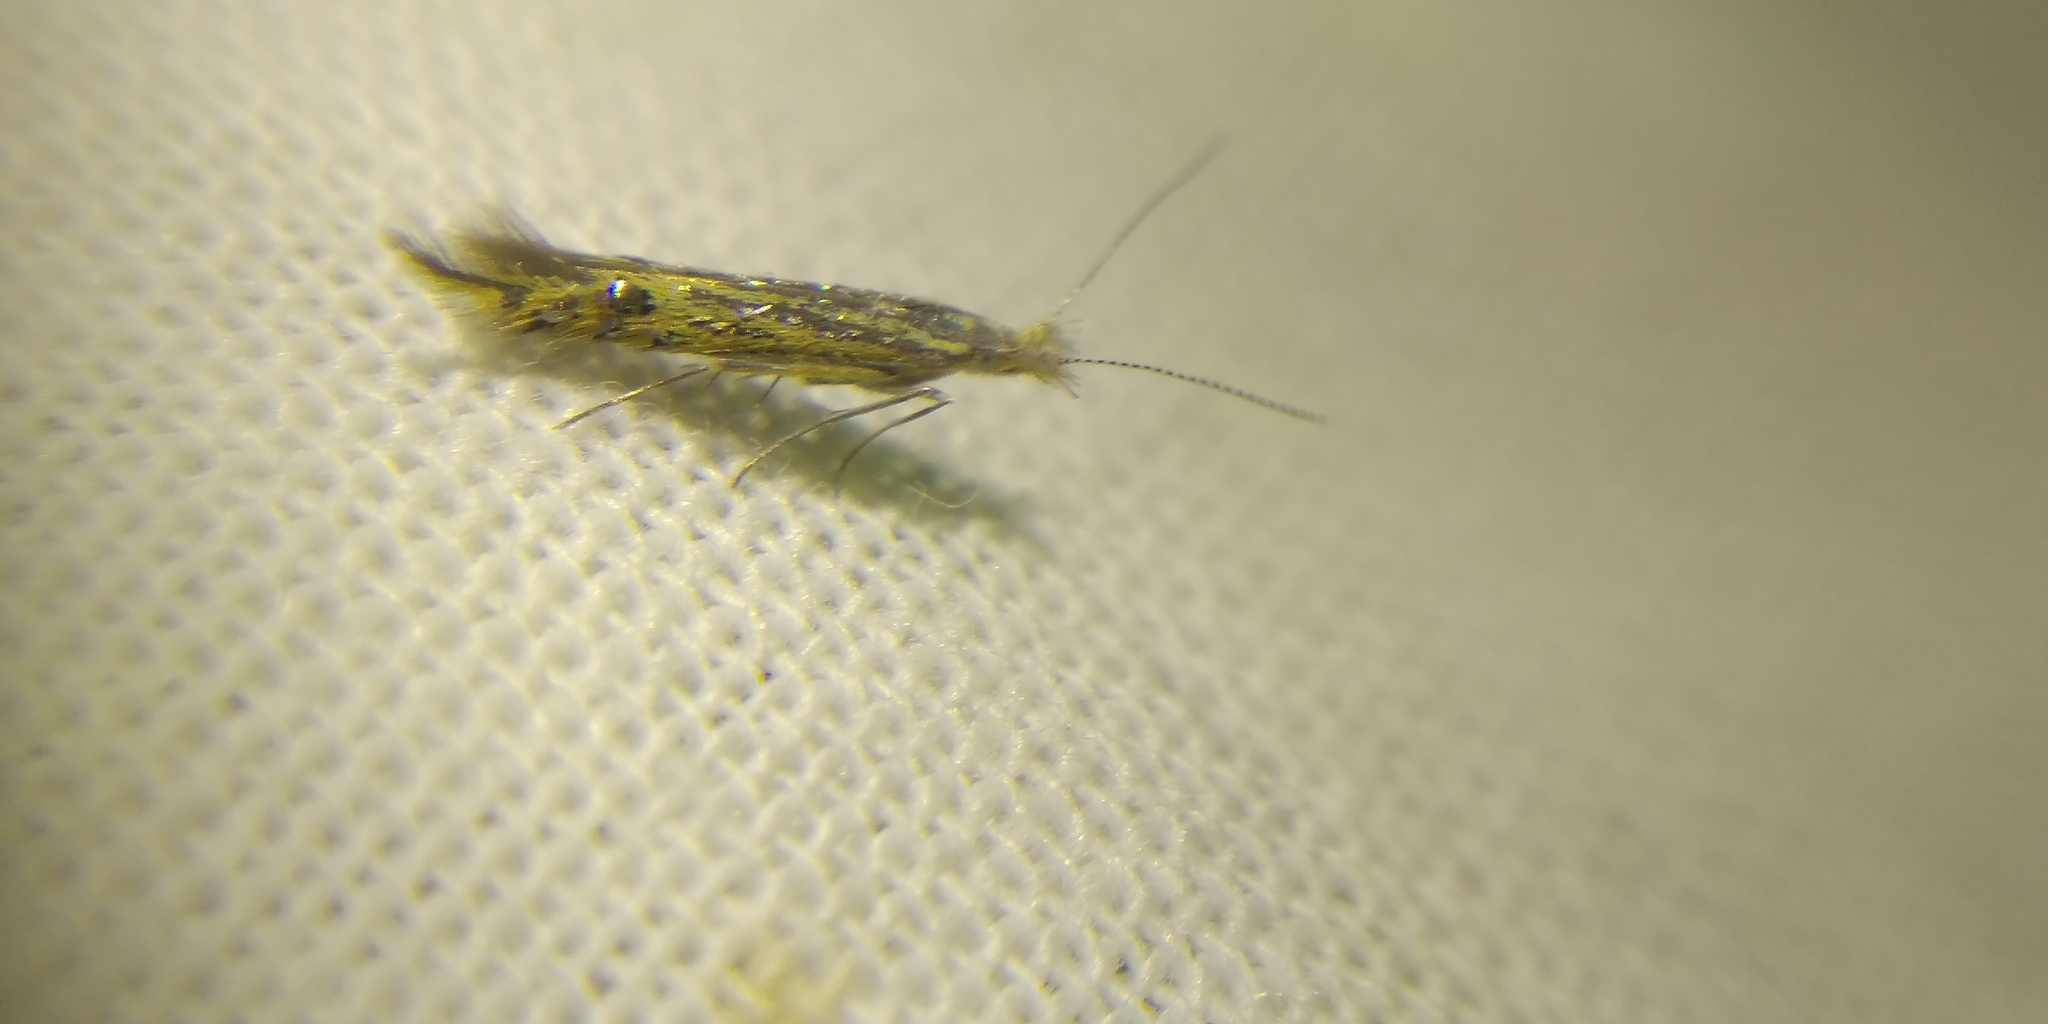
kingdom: Animalia
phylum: Arthropoda
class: Insecta
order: Lepidoptera
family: Coleophoridae
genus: Goniodoma
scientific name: Goniodoma auroguttella
